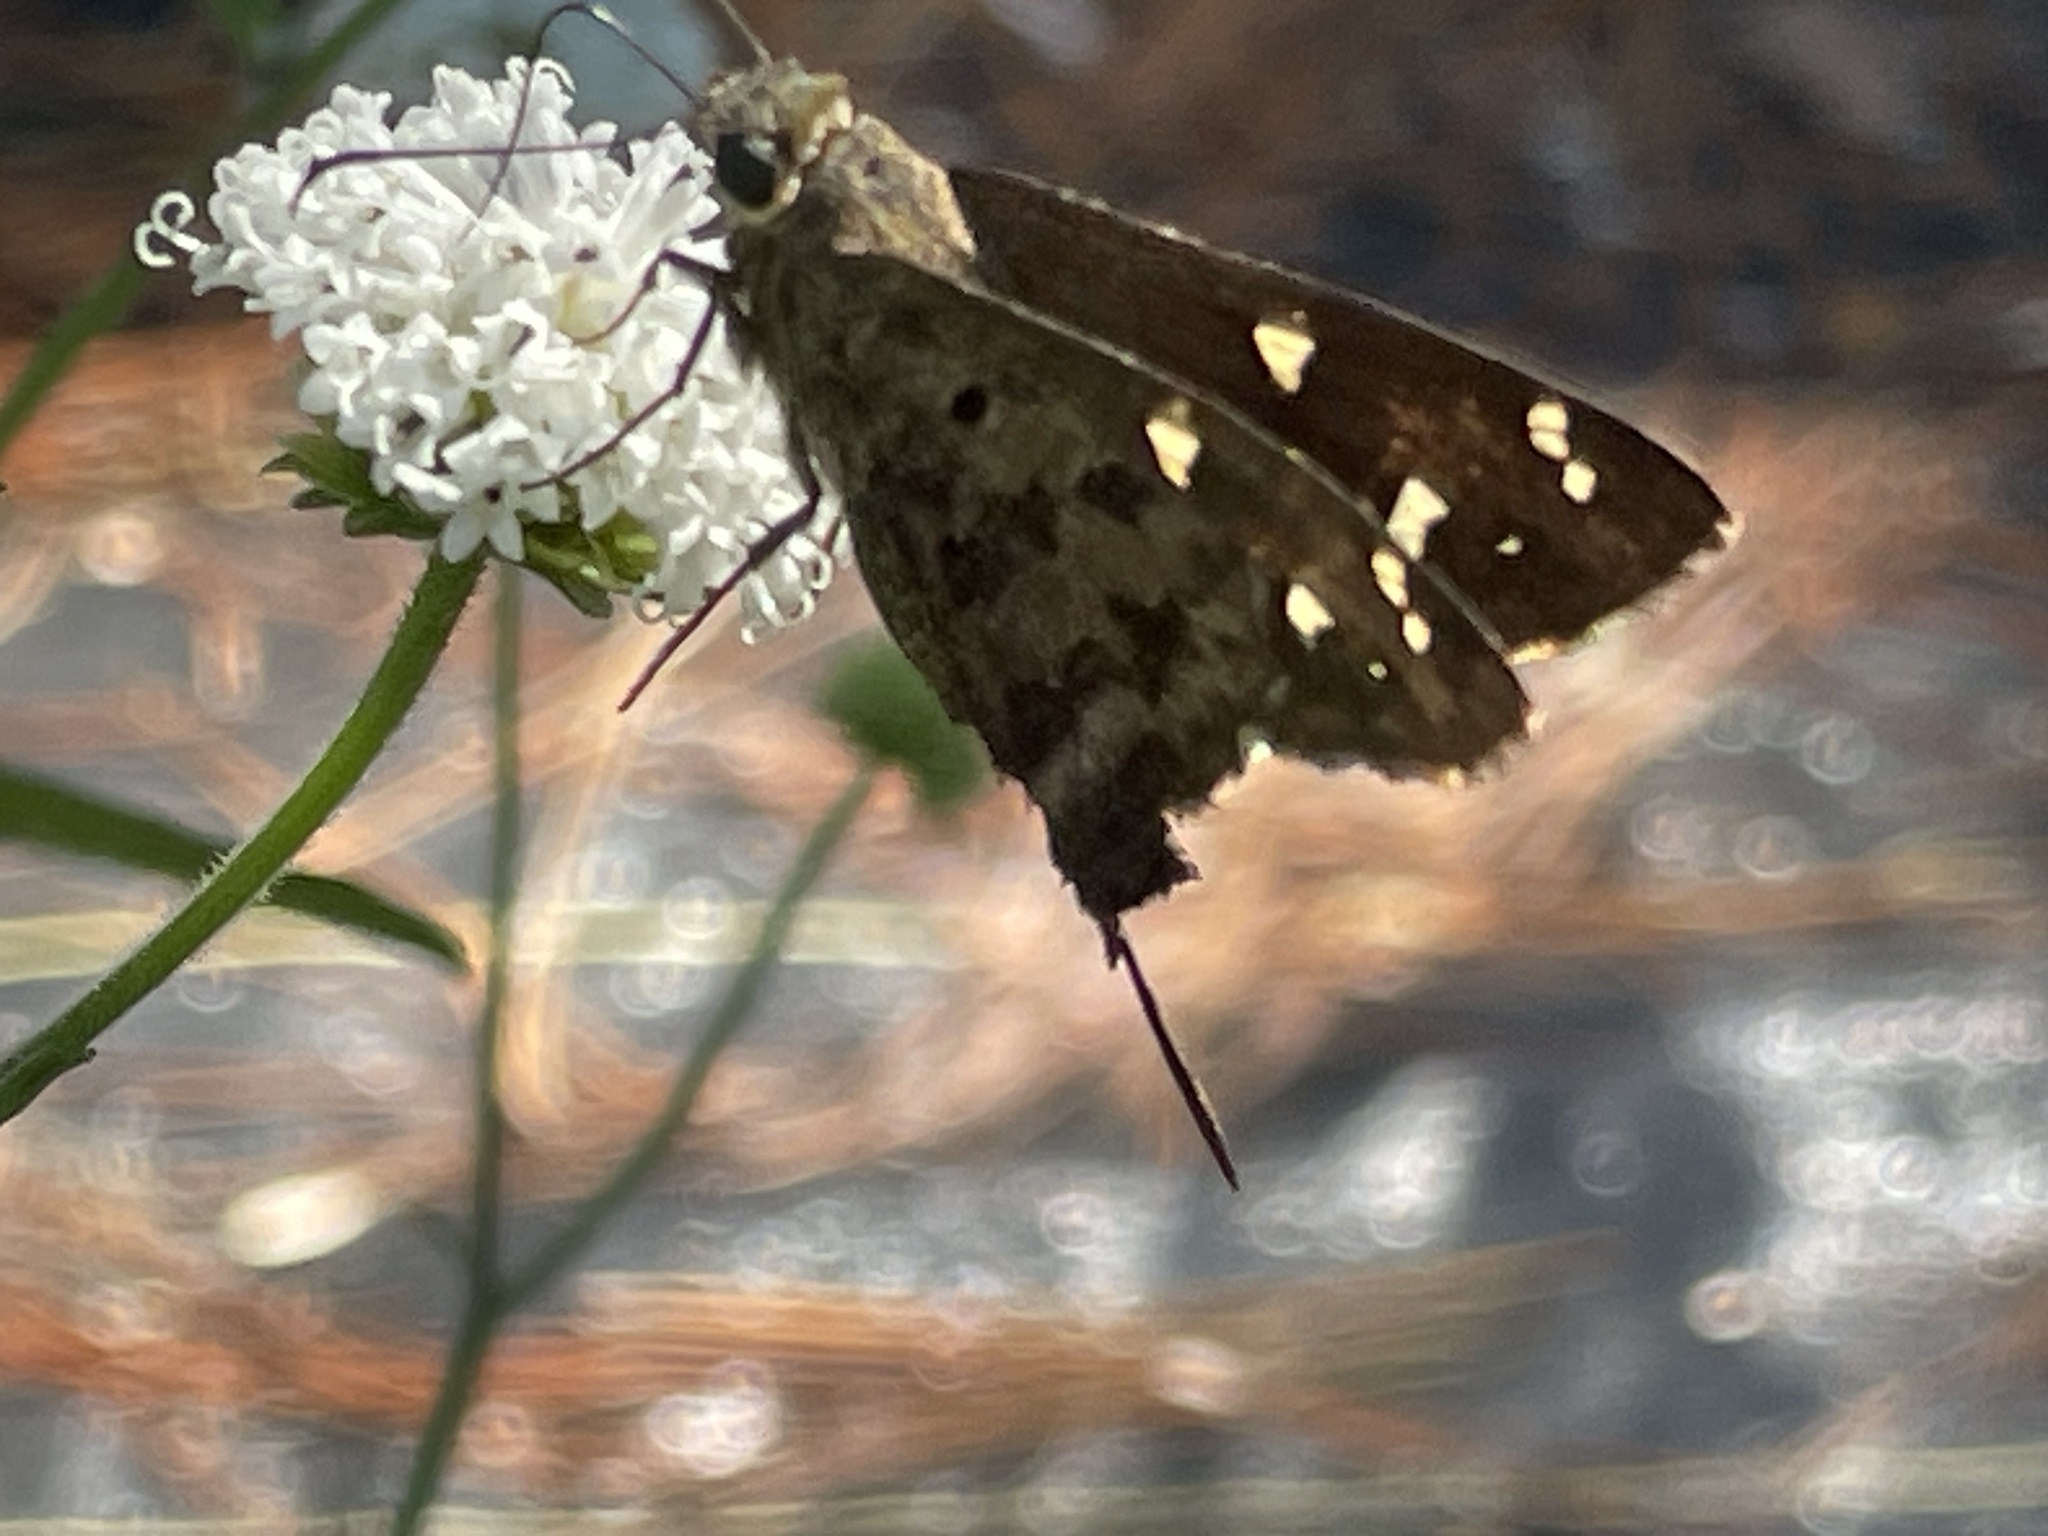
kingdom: Animalia
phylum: Arthropoda
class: Insecta
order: Lepidoptera
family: Hesperiidae
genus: Thorybes
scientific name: Thorybes
